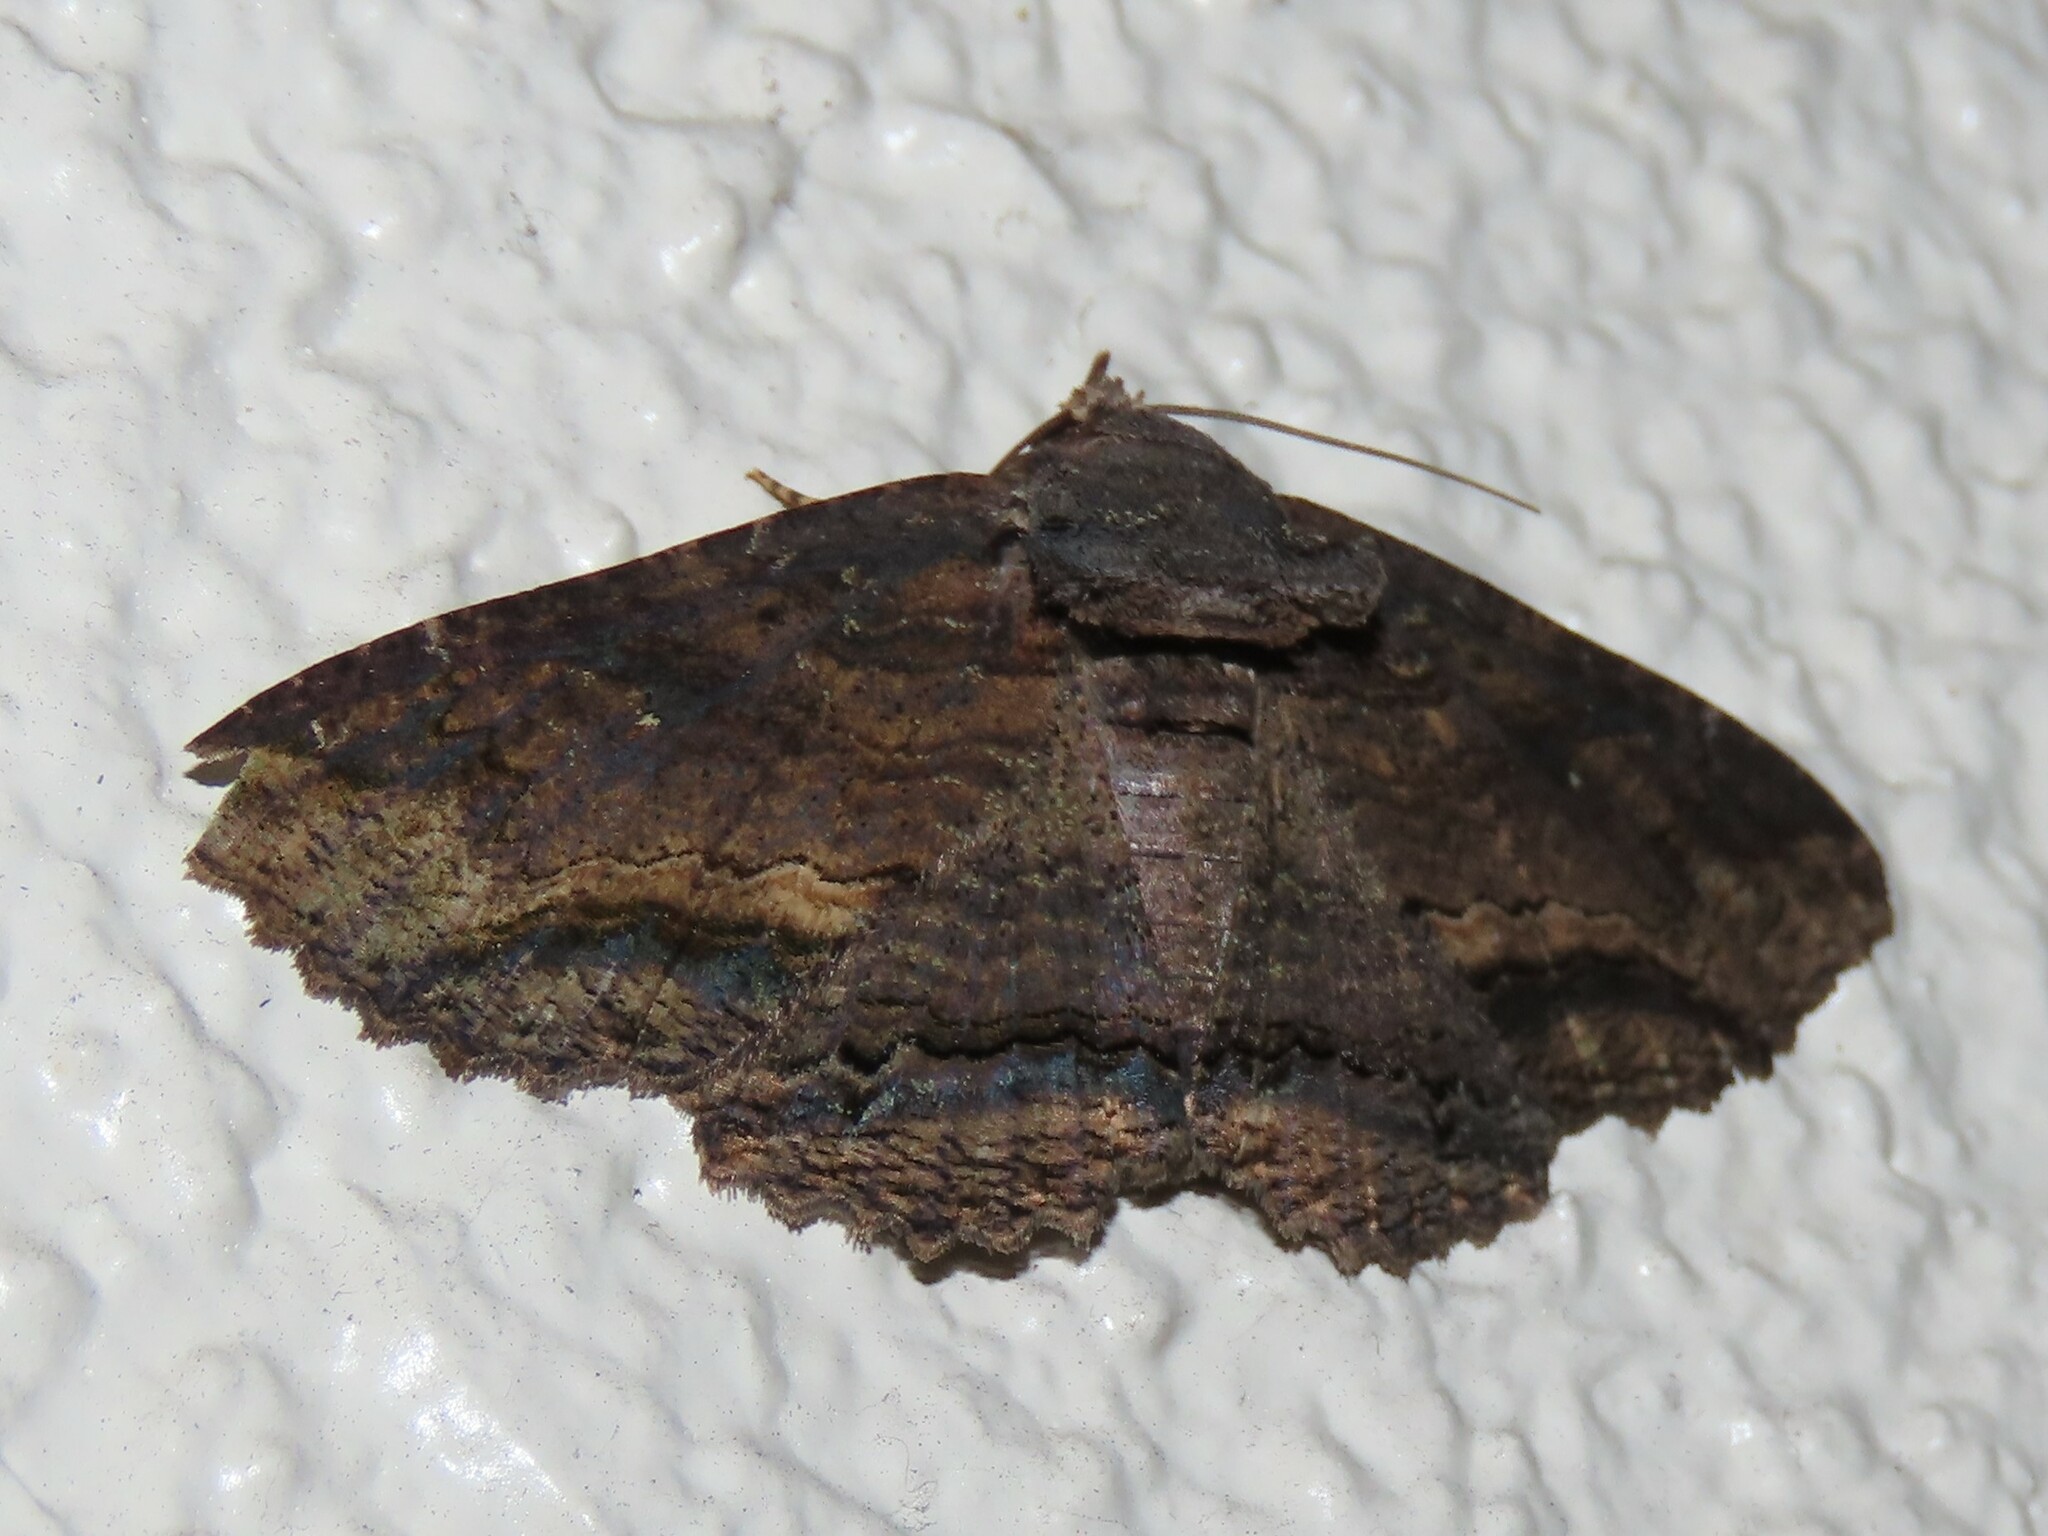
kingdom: Animalia
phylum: Arthropoda
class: Insecta
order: Lepidoptera
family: Erebidae
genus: Zale
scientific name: Zale lunata
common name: Lunate zale moth
